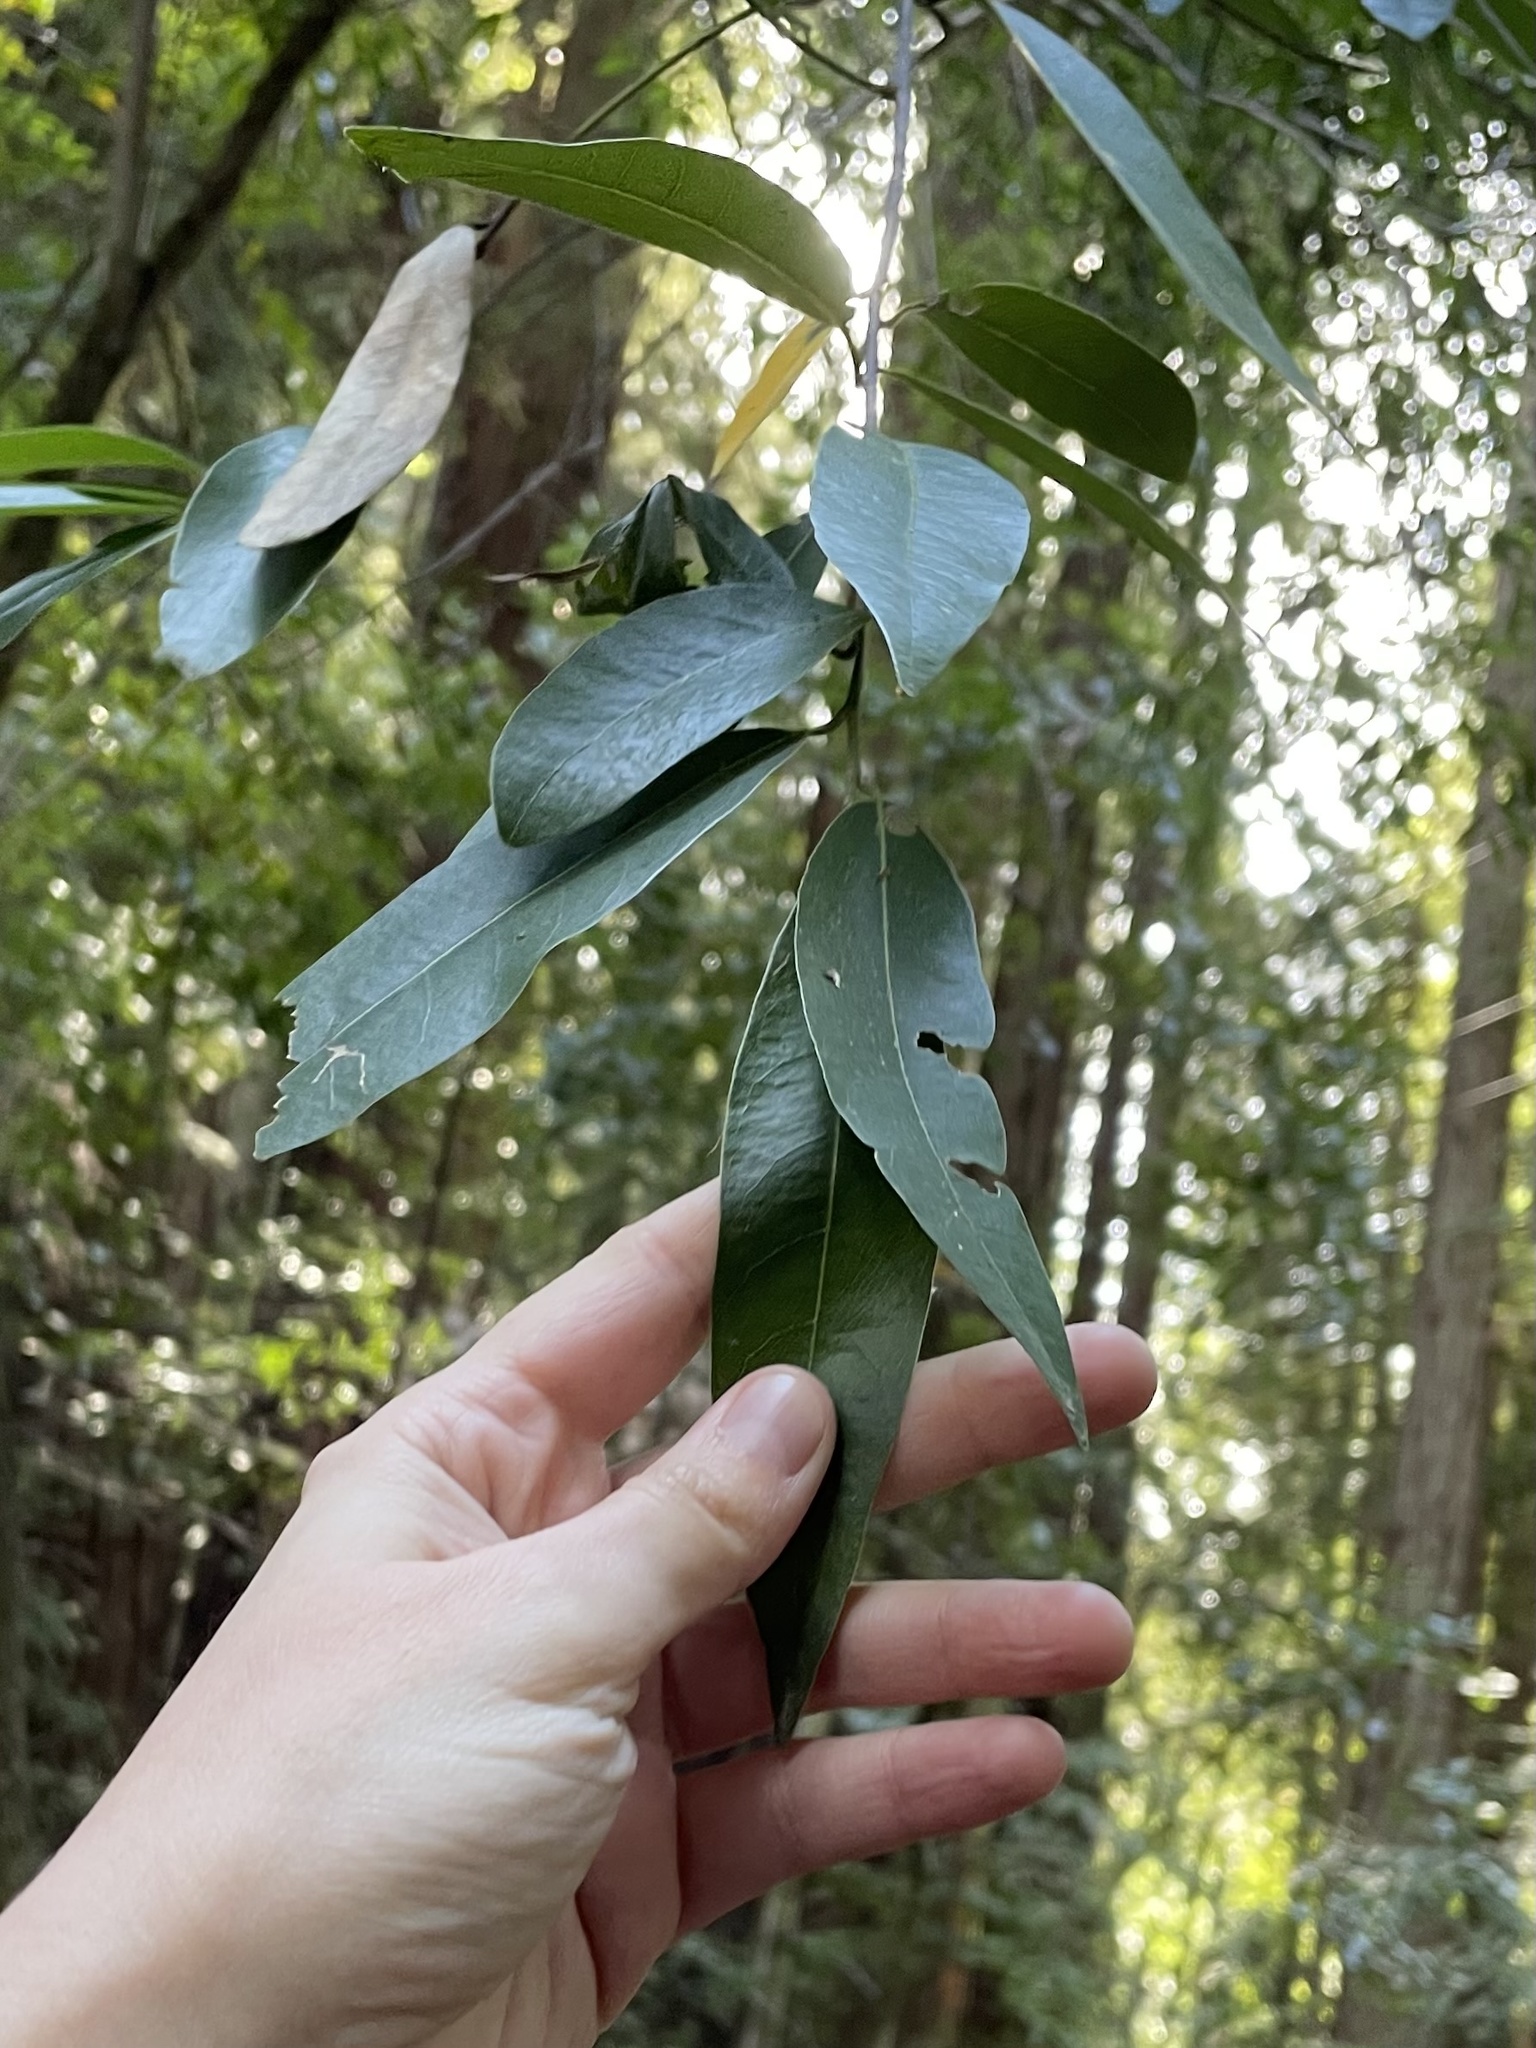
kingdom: Plantae
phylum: Tracheophyta
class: Magnoliopsida
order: Laurales
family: Lauraceae
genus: Umbellularia
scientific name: Umbellularia californica
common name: California bay
